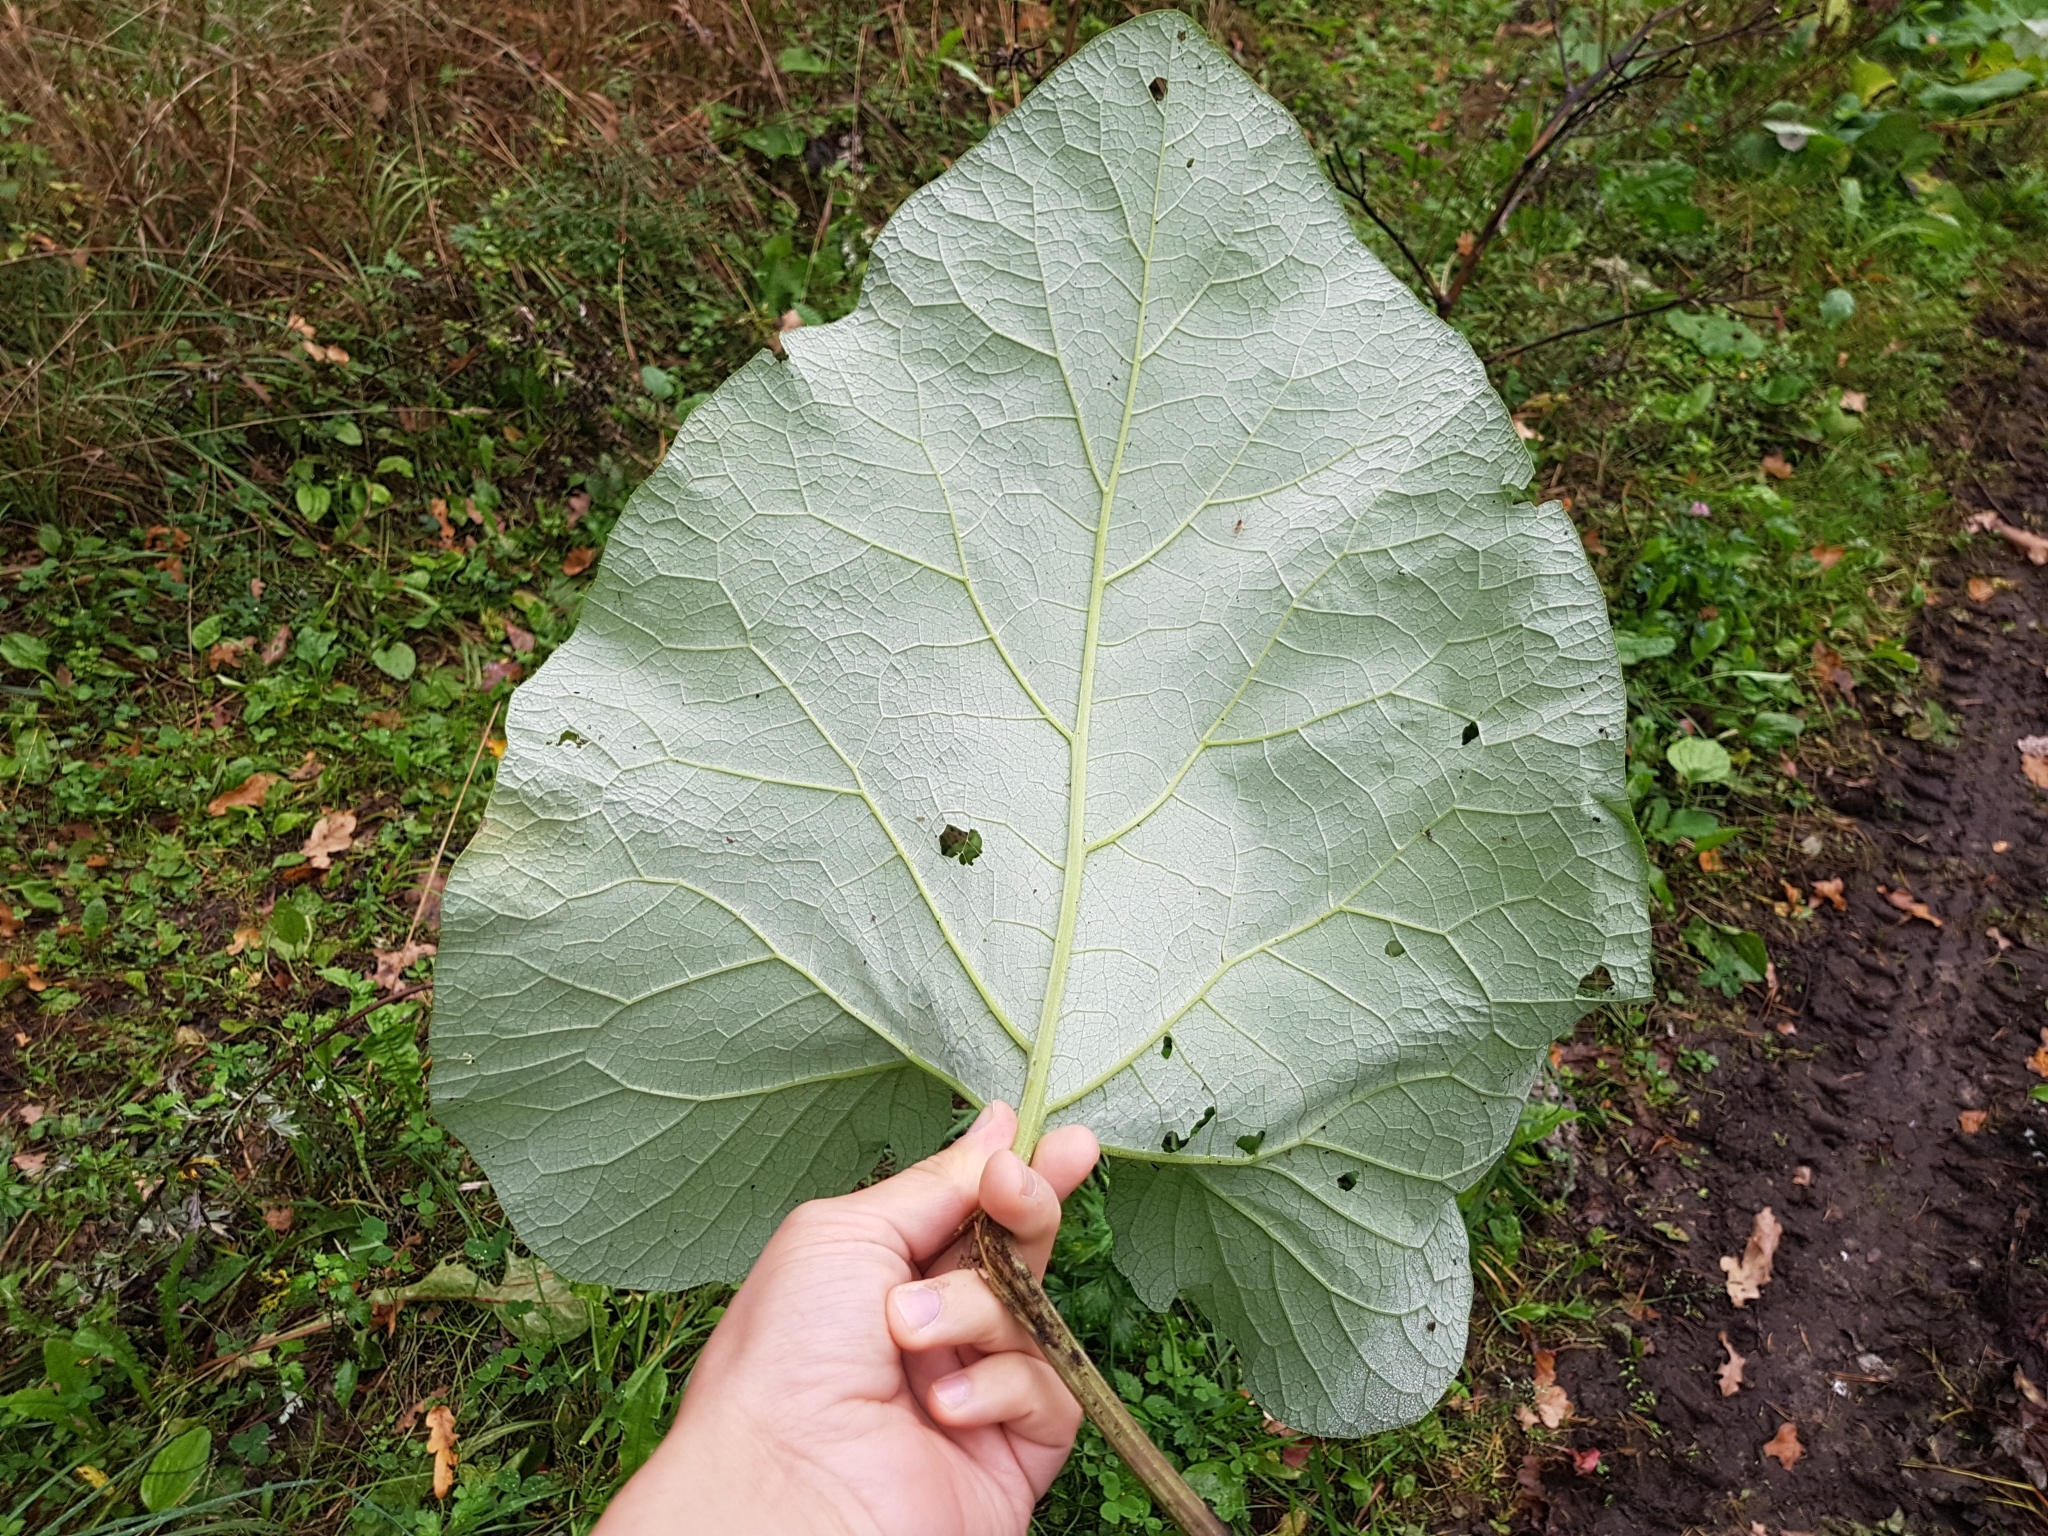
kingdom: Plantae
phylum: Tracheophyta
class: Magnoliopsida
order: Asterales
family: Asteraceae
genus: Arctium
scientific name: Arctium lappa
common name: Greater burdock
